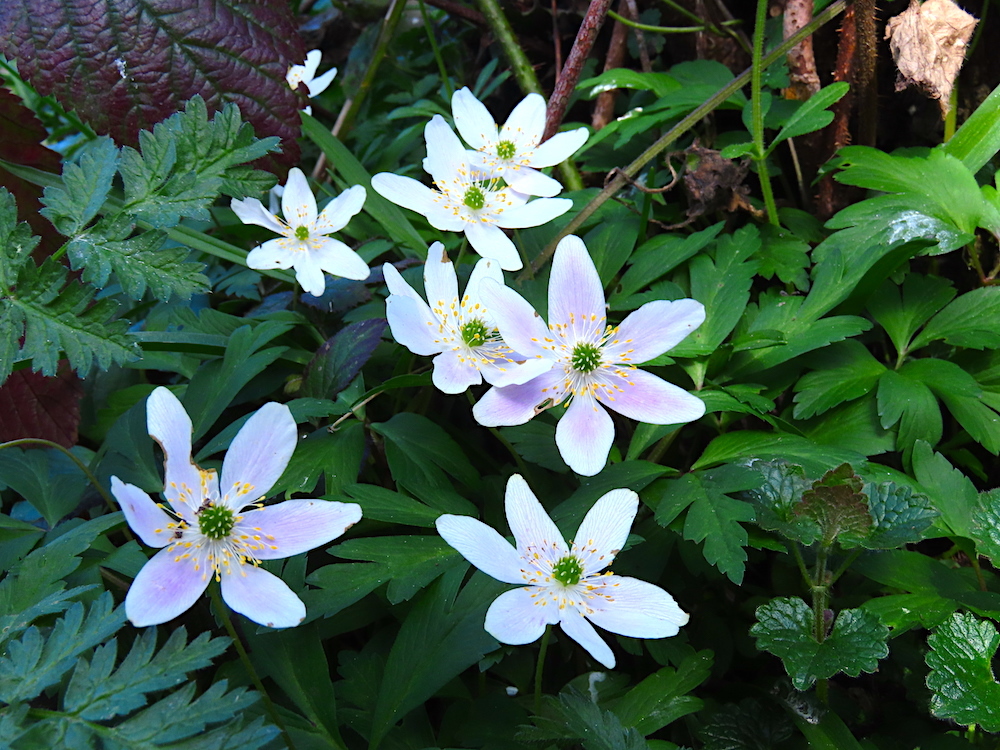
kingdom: Plantae
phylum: Tracheophyta
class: Magnoliopsida
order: Ranunculales
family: Ranunculaceae
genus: Anemone
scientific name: Anemone nemorosa
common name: Wood anemone
